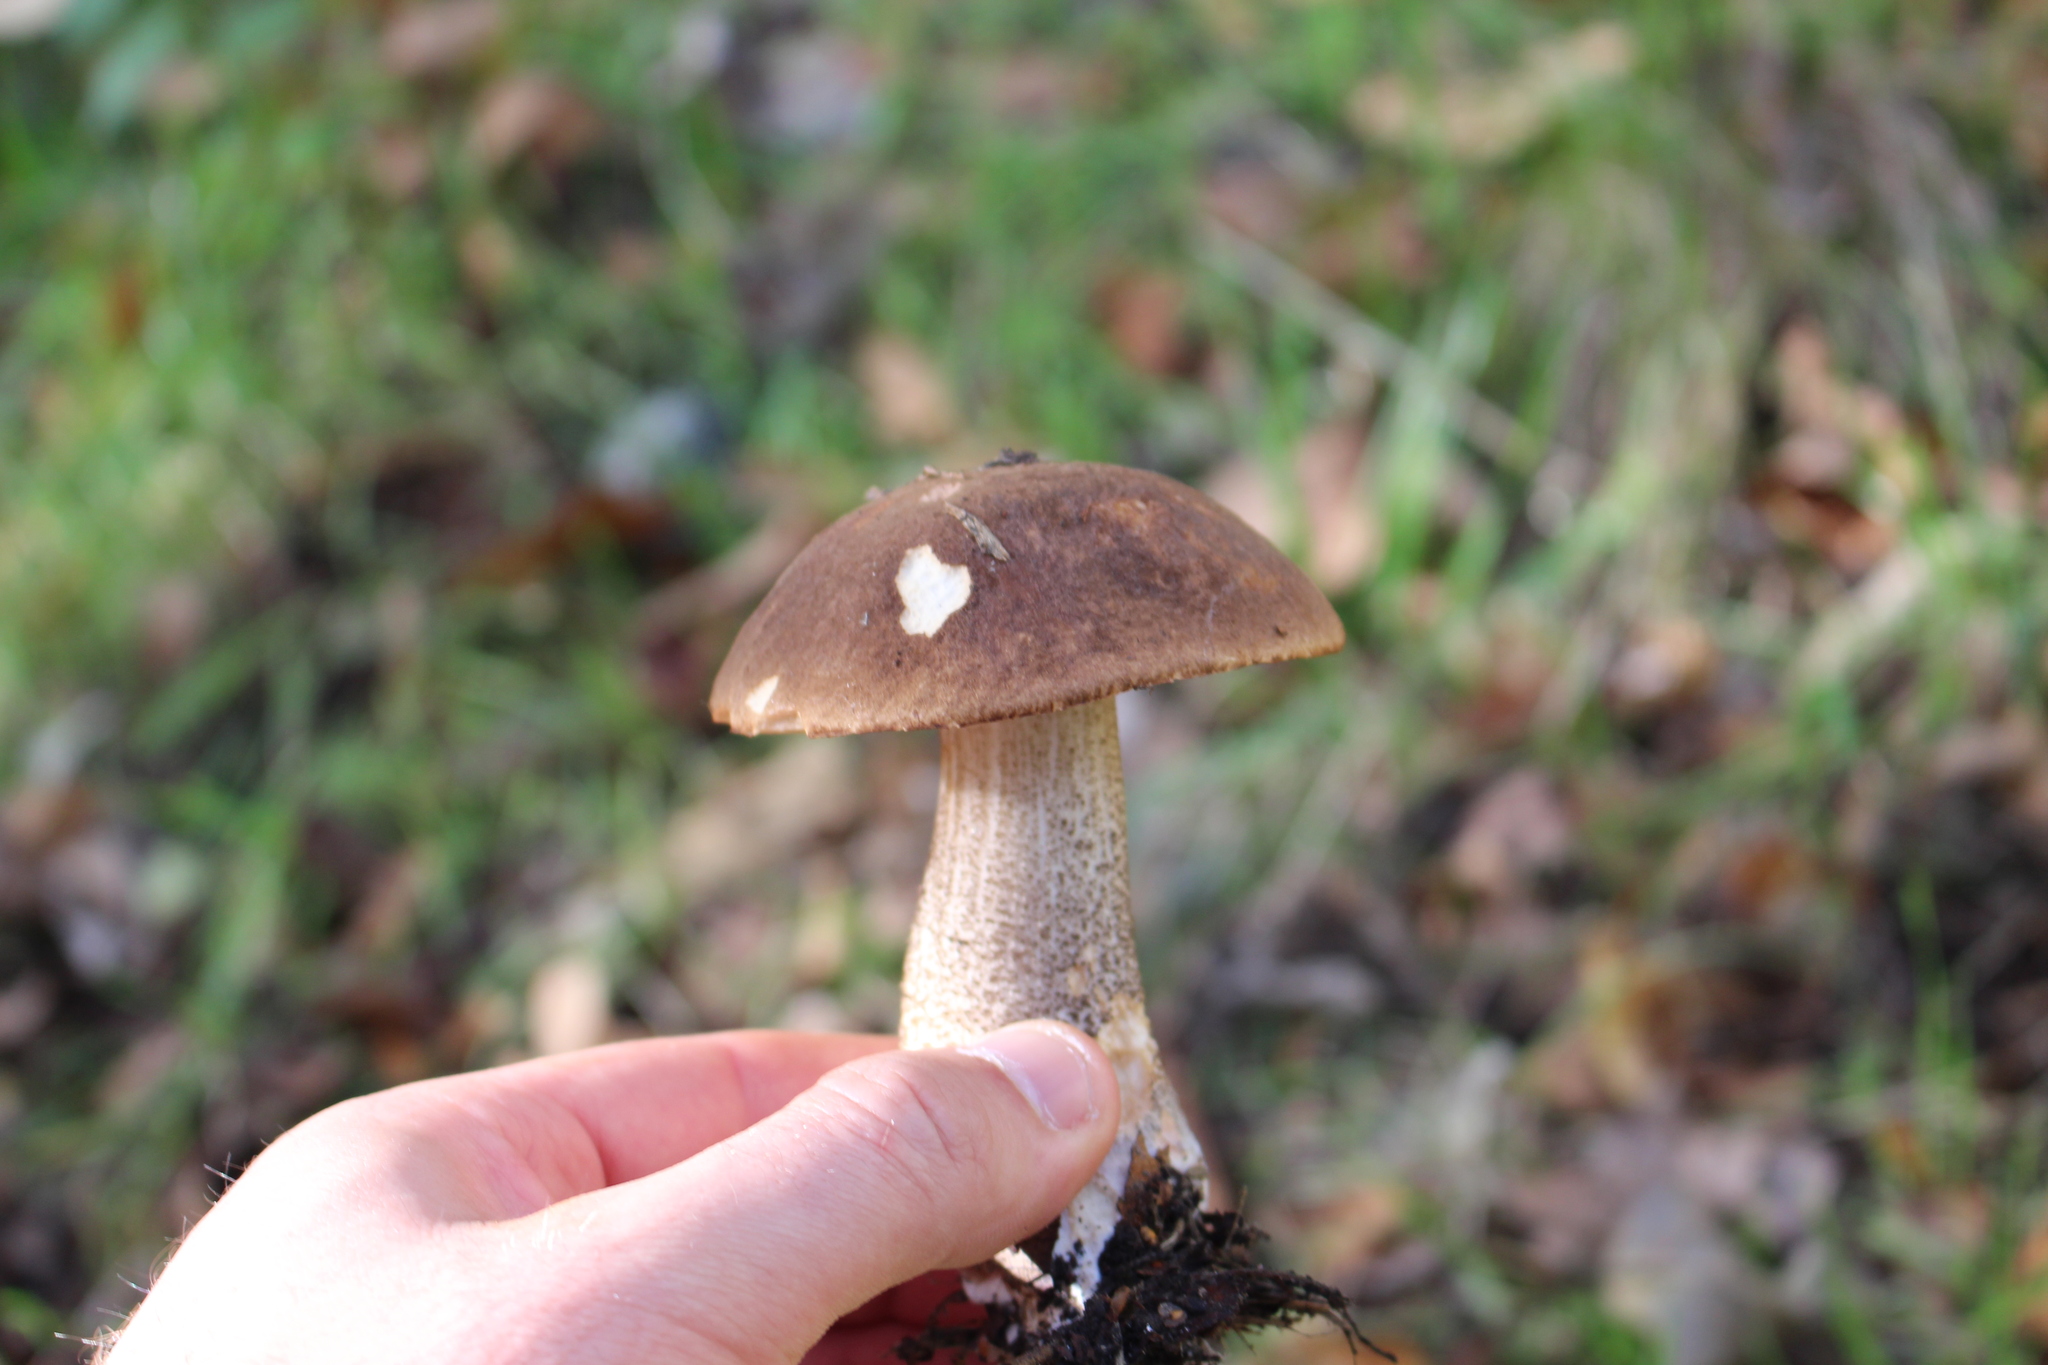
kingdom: Fungi
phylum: Basidiomycota
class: Agaricomycetes
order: Boletales
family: Boletaceae
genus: Leccinum
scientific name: Leccinum scabrum
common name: Blushing bolete
